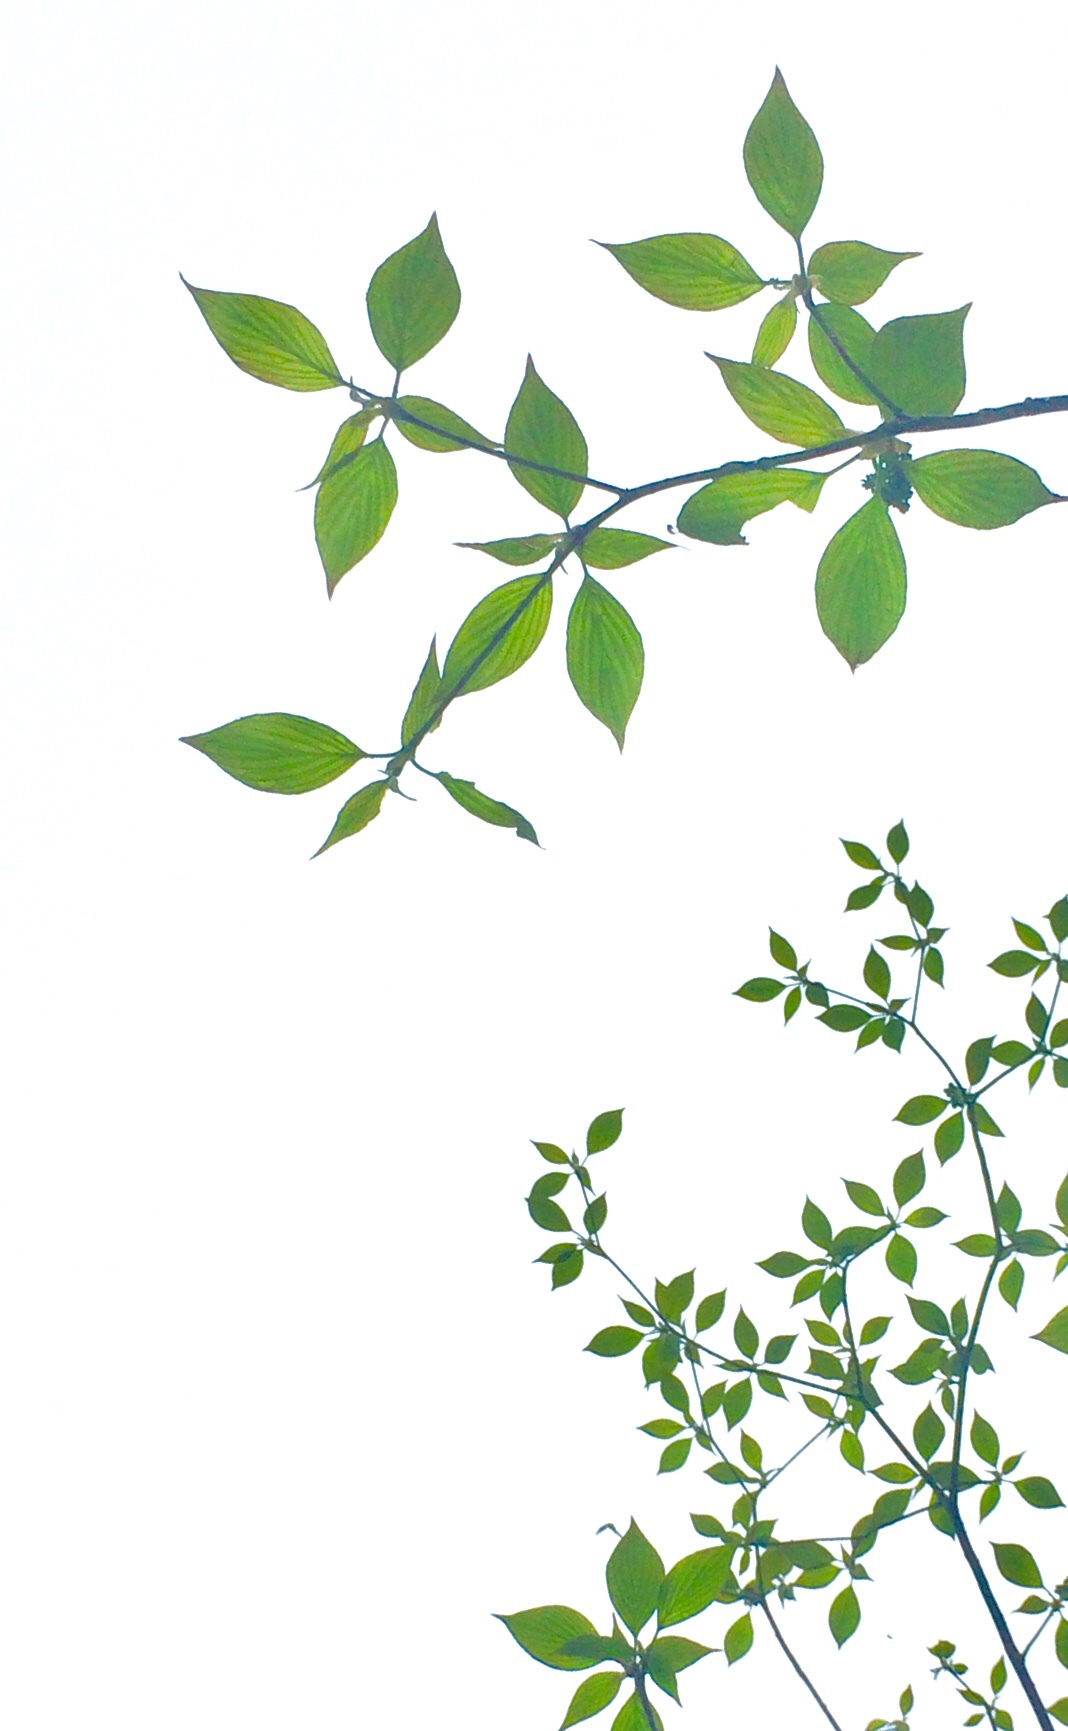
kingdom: Plantae
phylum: Tracheophyta
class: Magnoliopsida
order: Cornales
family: Cornaceae
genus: Cornus
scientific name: Cornus alternifolia
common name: Pagoda dogwood
